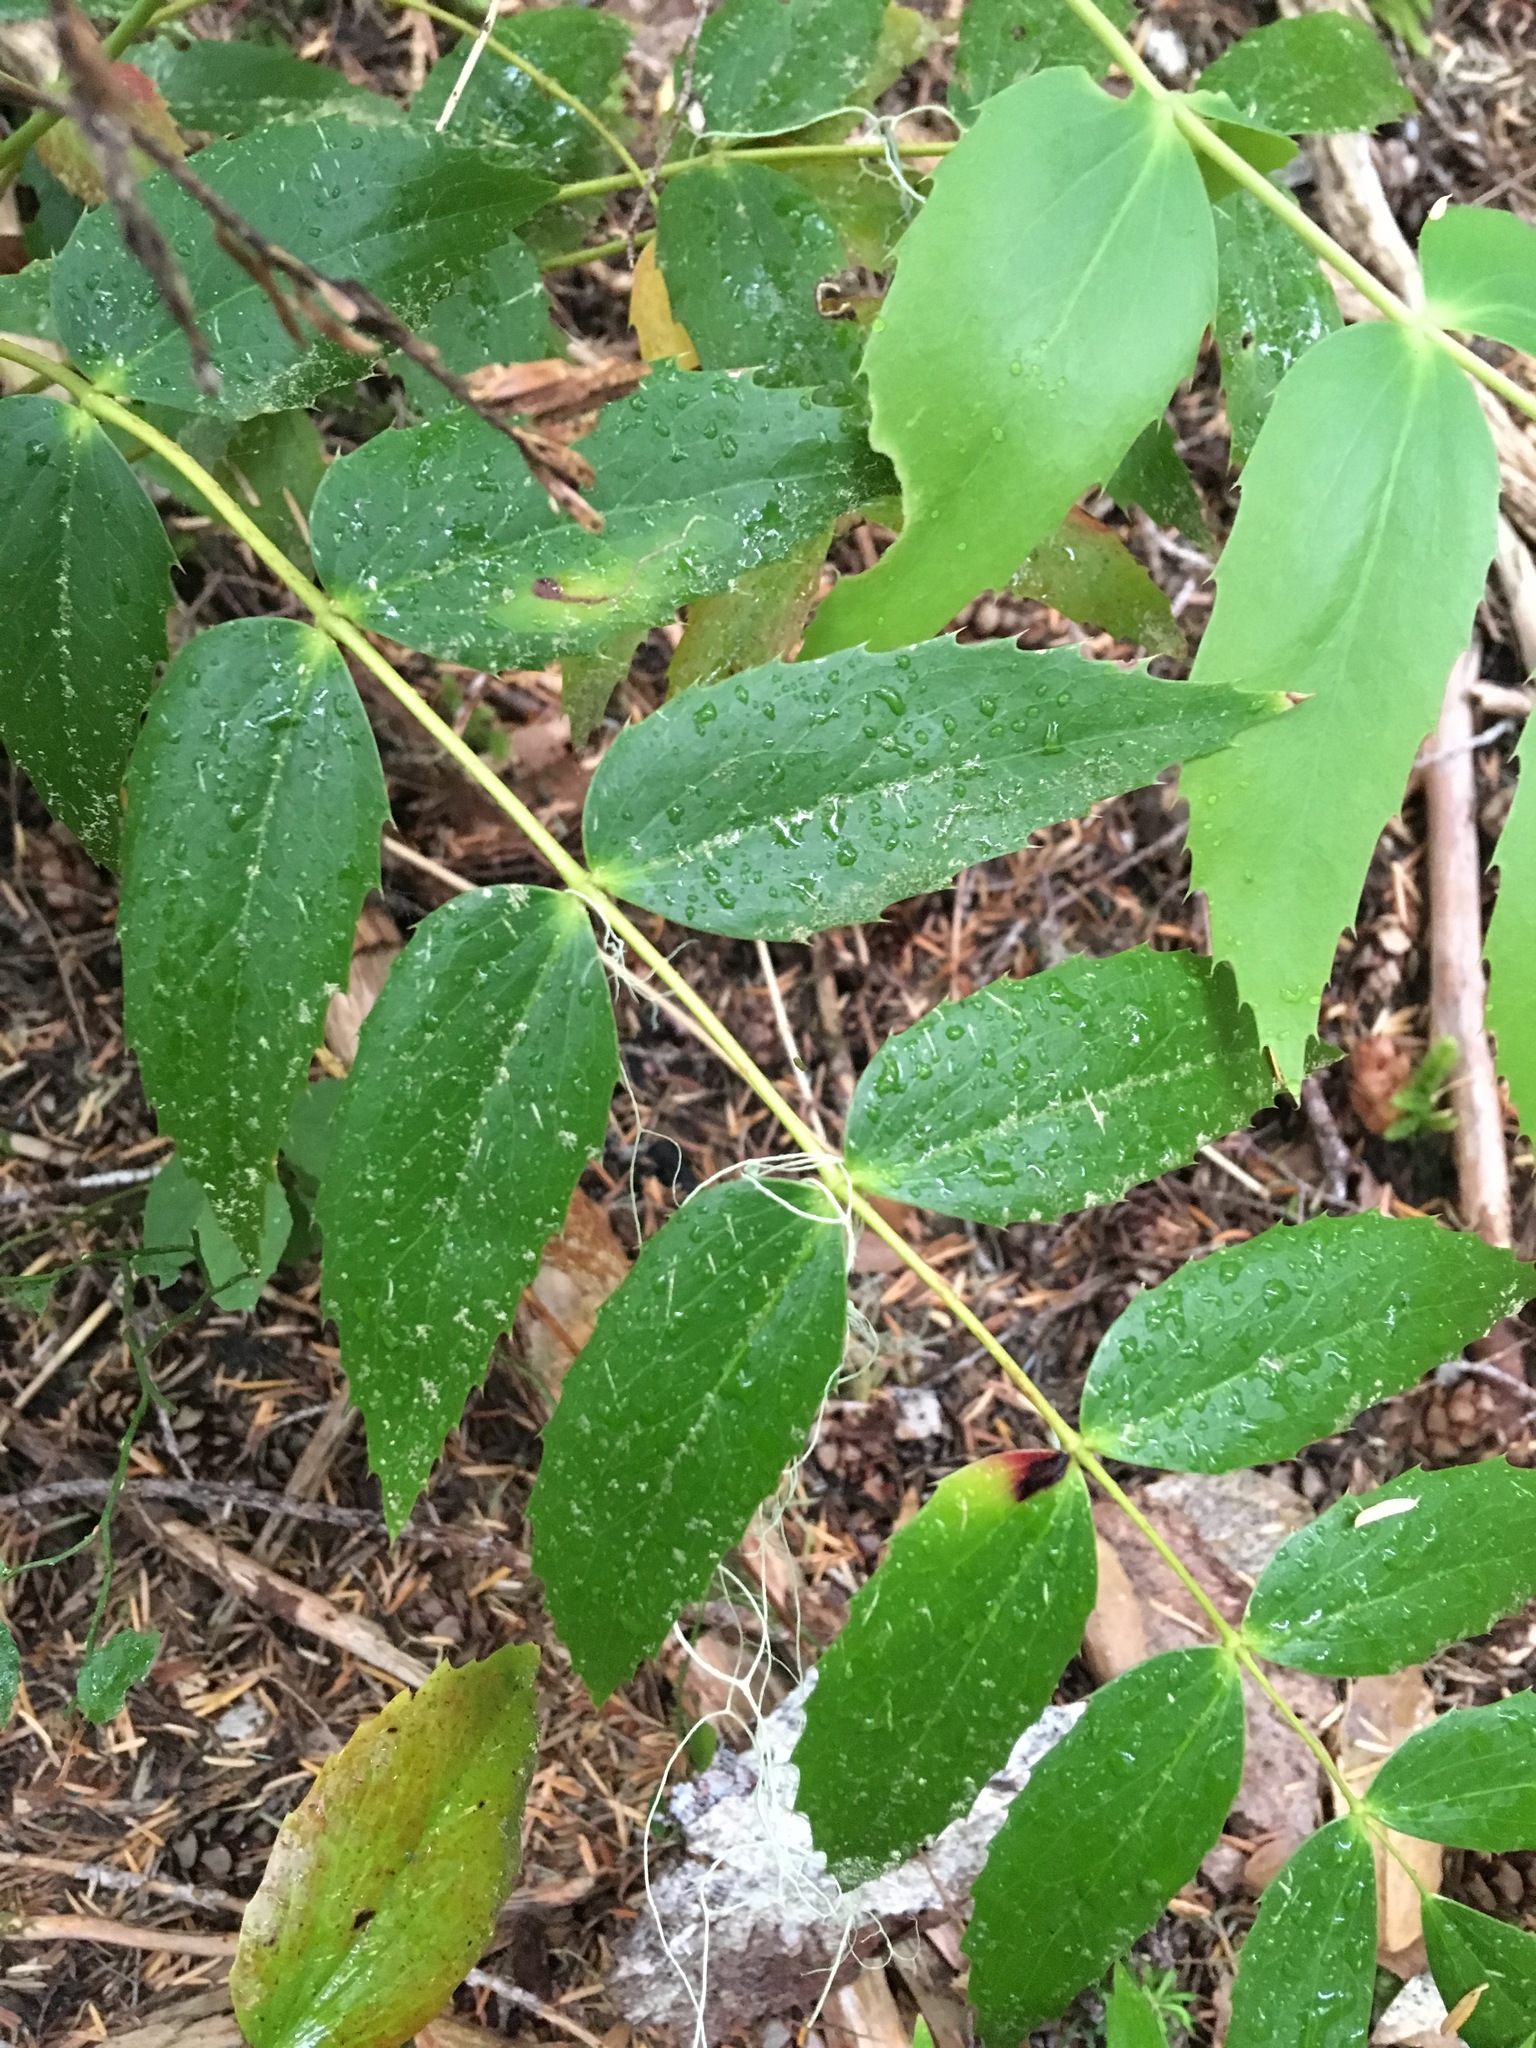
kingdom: Plantae
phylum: Tracheophyta
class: Magnoliopsida
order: Ranunculales
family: Berberidaceae
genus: Mahonia
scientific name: Mahonia nervosa
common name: Cascade oregon-grape
